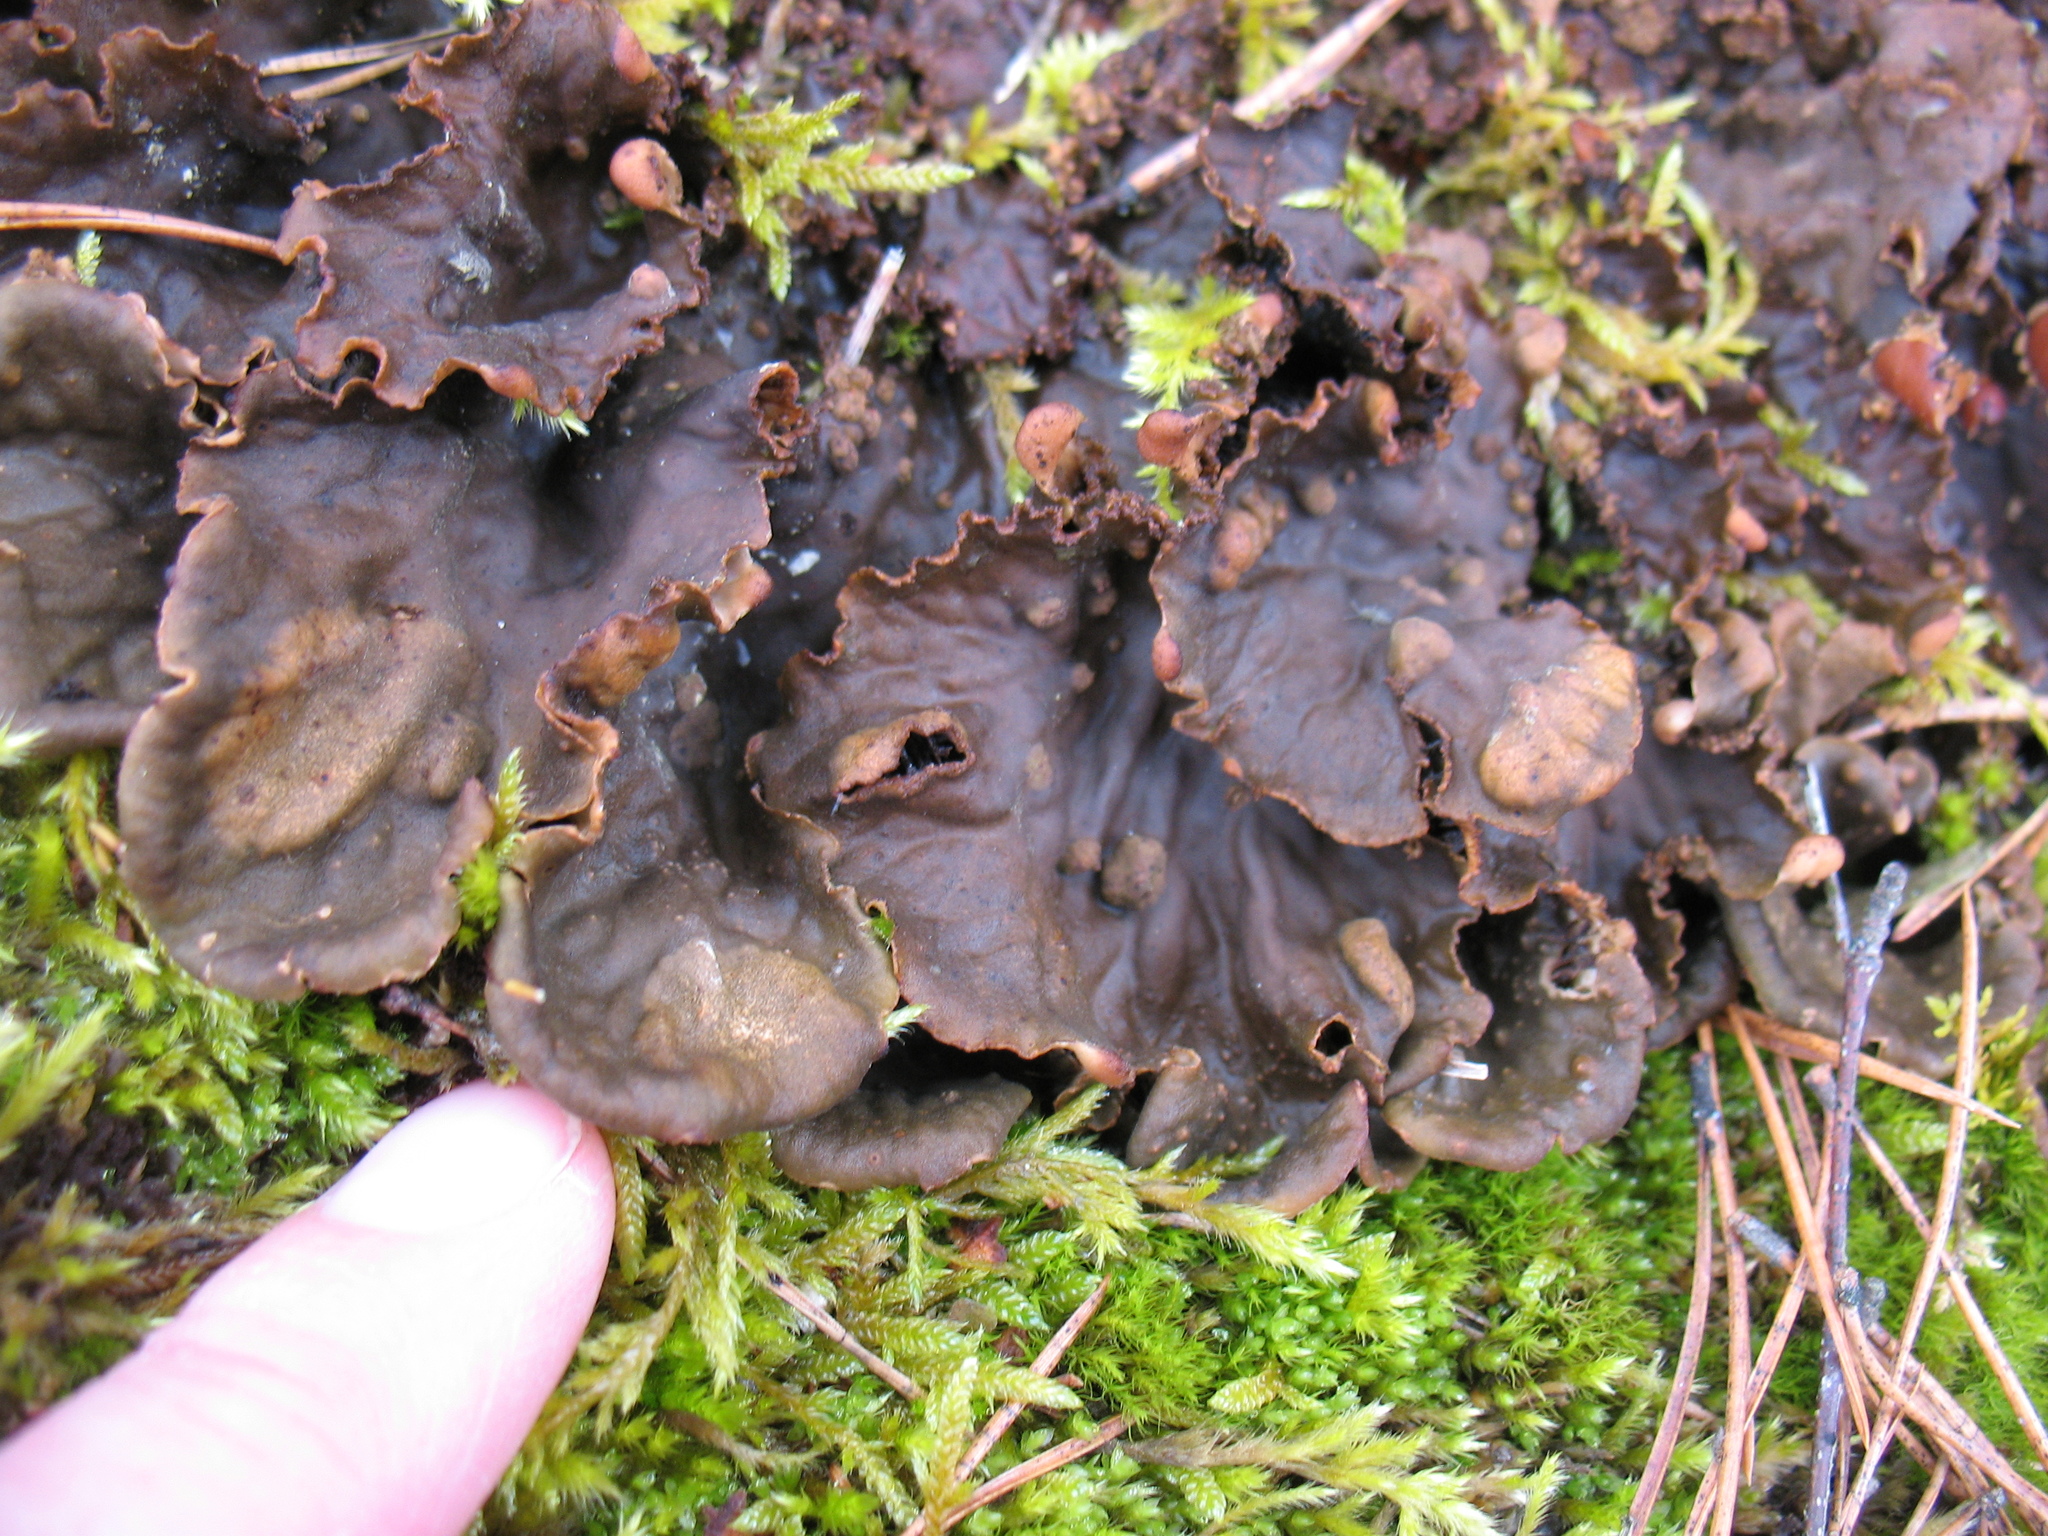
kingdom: Fungi
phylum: Ascomycota
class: Lecanoromycetes
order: Peltigerales
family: Peltigeraceae
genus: Peltigera
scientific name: Peltigera praetextata
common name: Scaly dog-lichen
